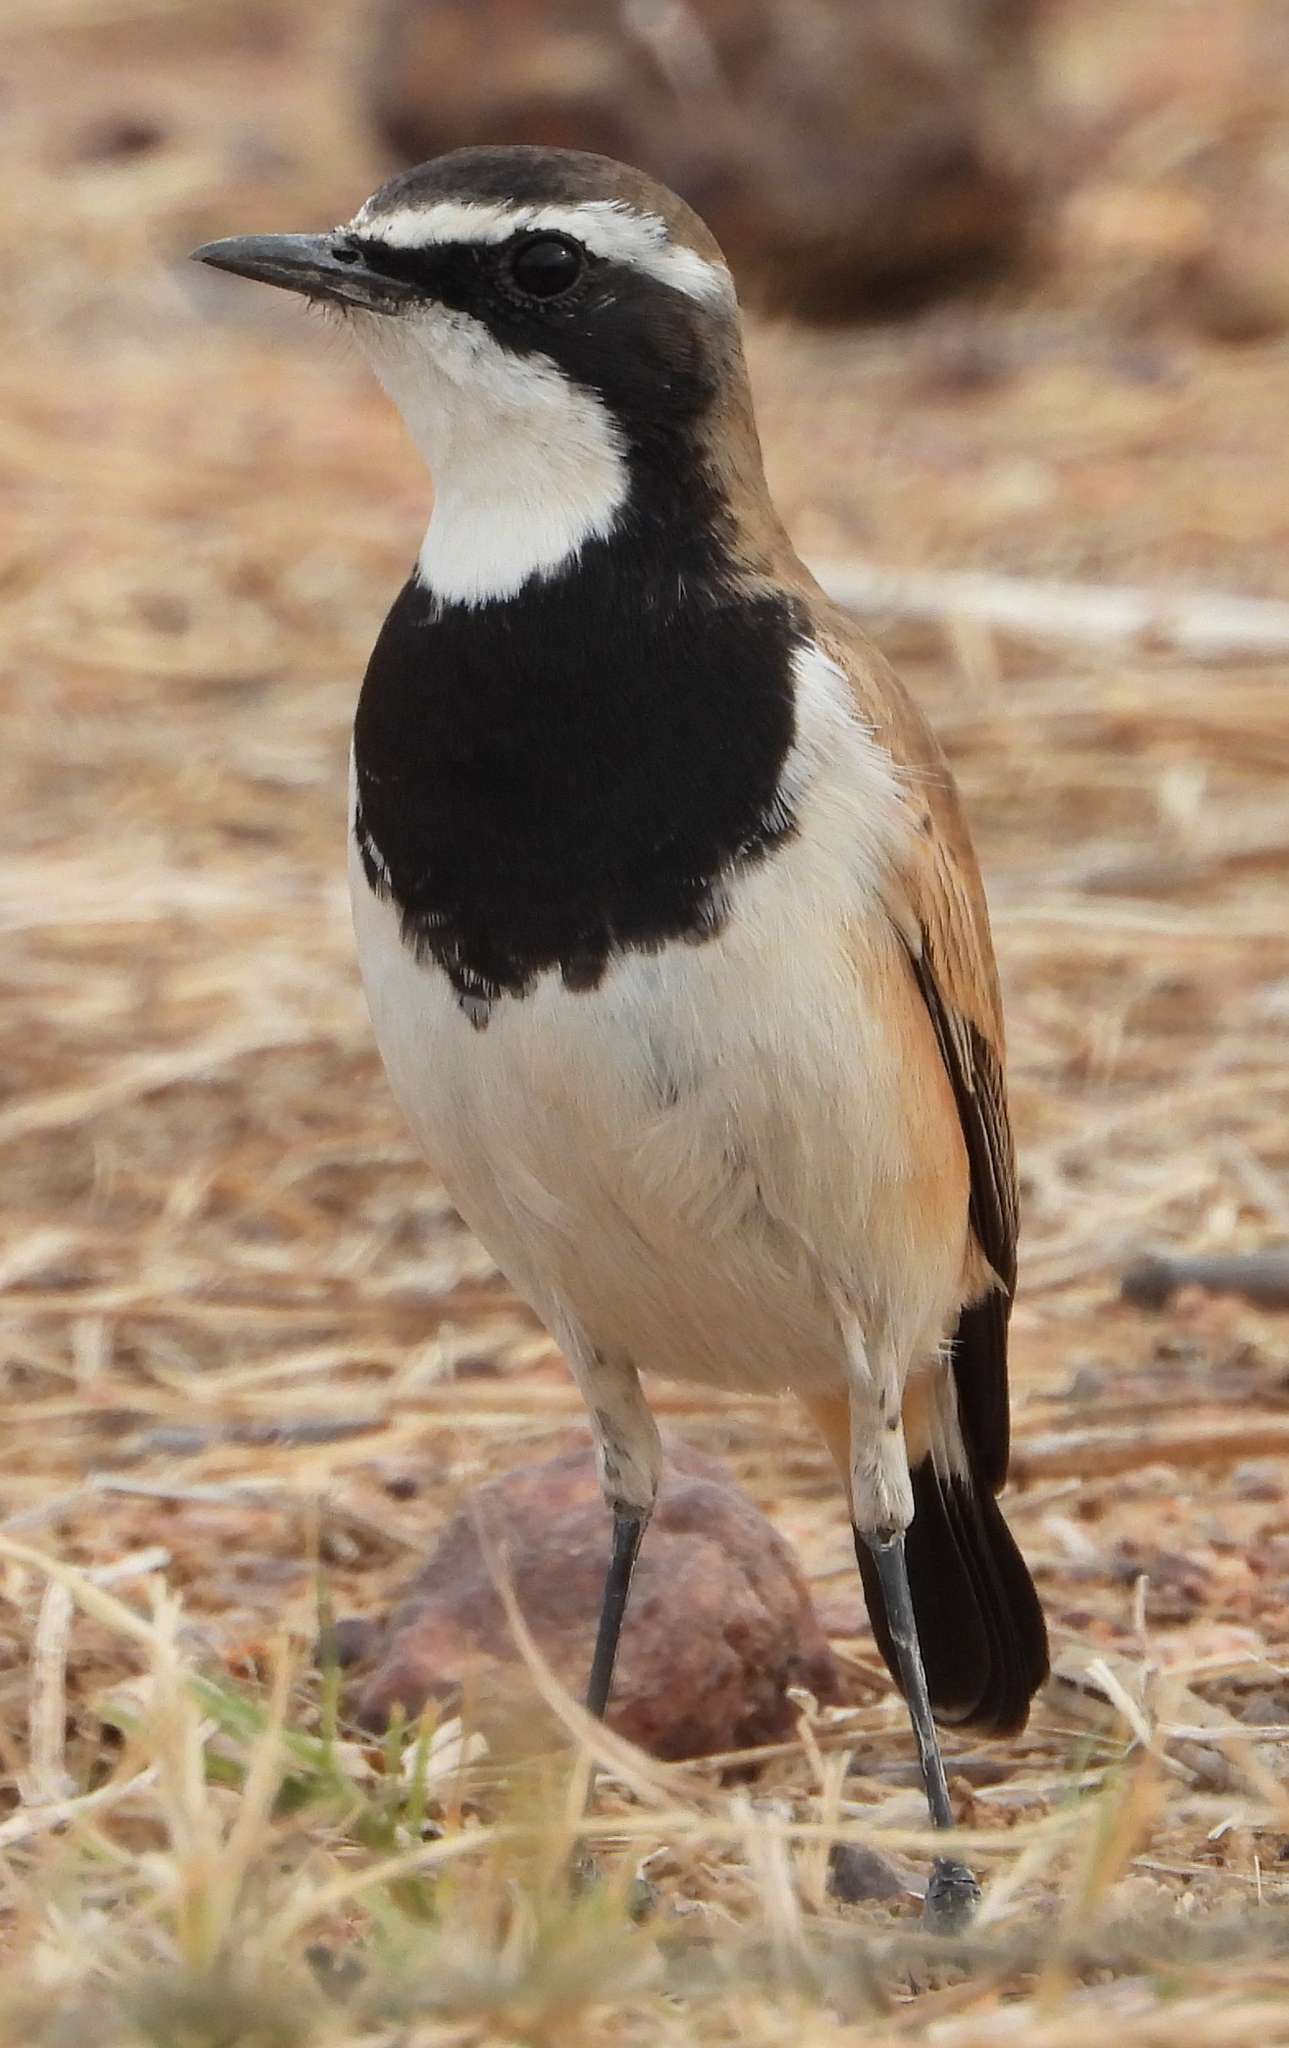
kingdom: Animalia
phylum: Chordata
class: Aves
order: Passeriformes
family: Muscicapidae
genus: Oenanthe
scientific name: Oenanthe pileata
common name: Capped wheatear
